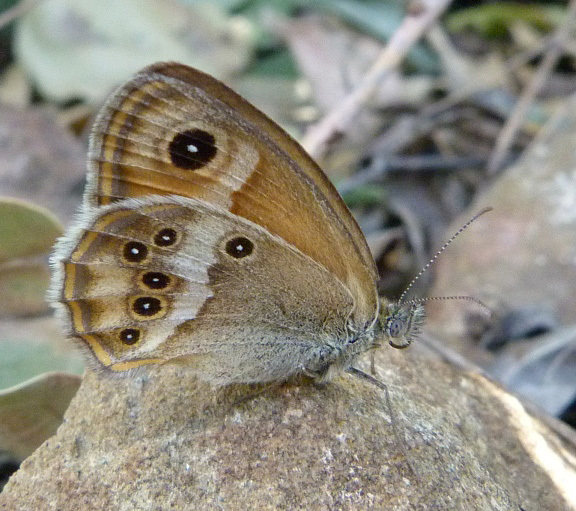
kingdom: Animalia
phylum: Arthropoda
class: Insecta
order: Lepidoptera
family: Nymphalidae
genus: Coenonympha
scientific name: Coenonympha dorus
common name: Dusky heath
